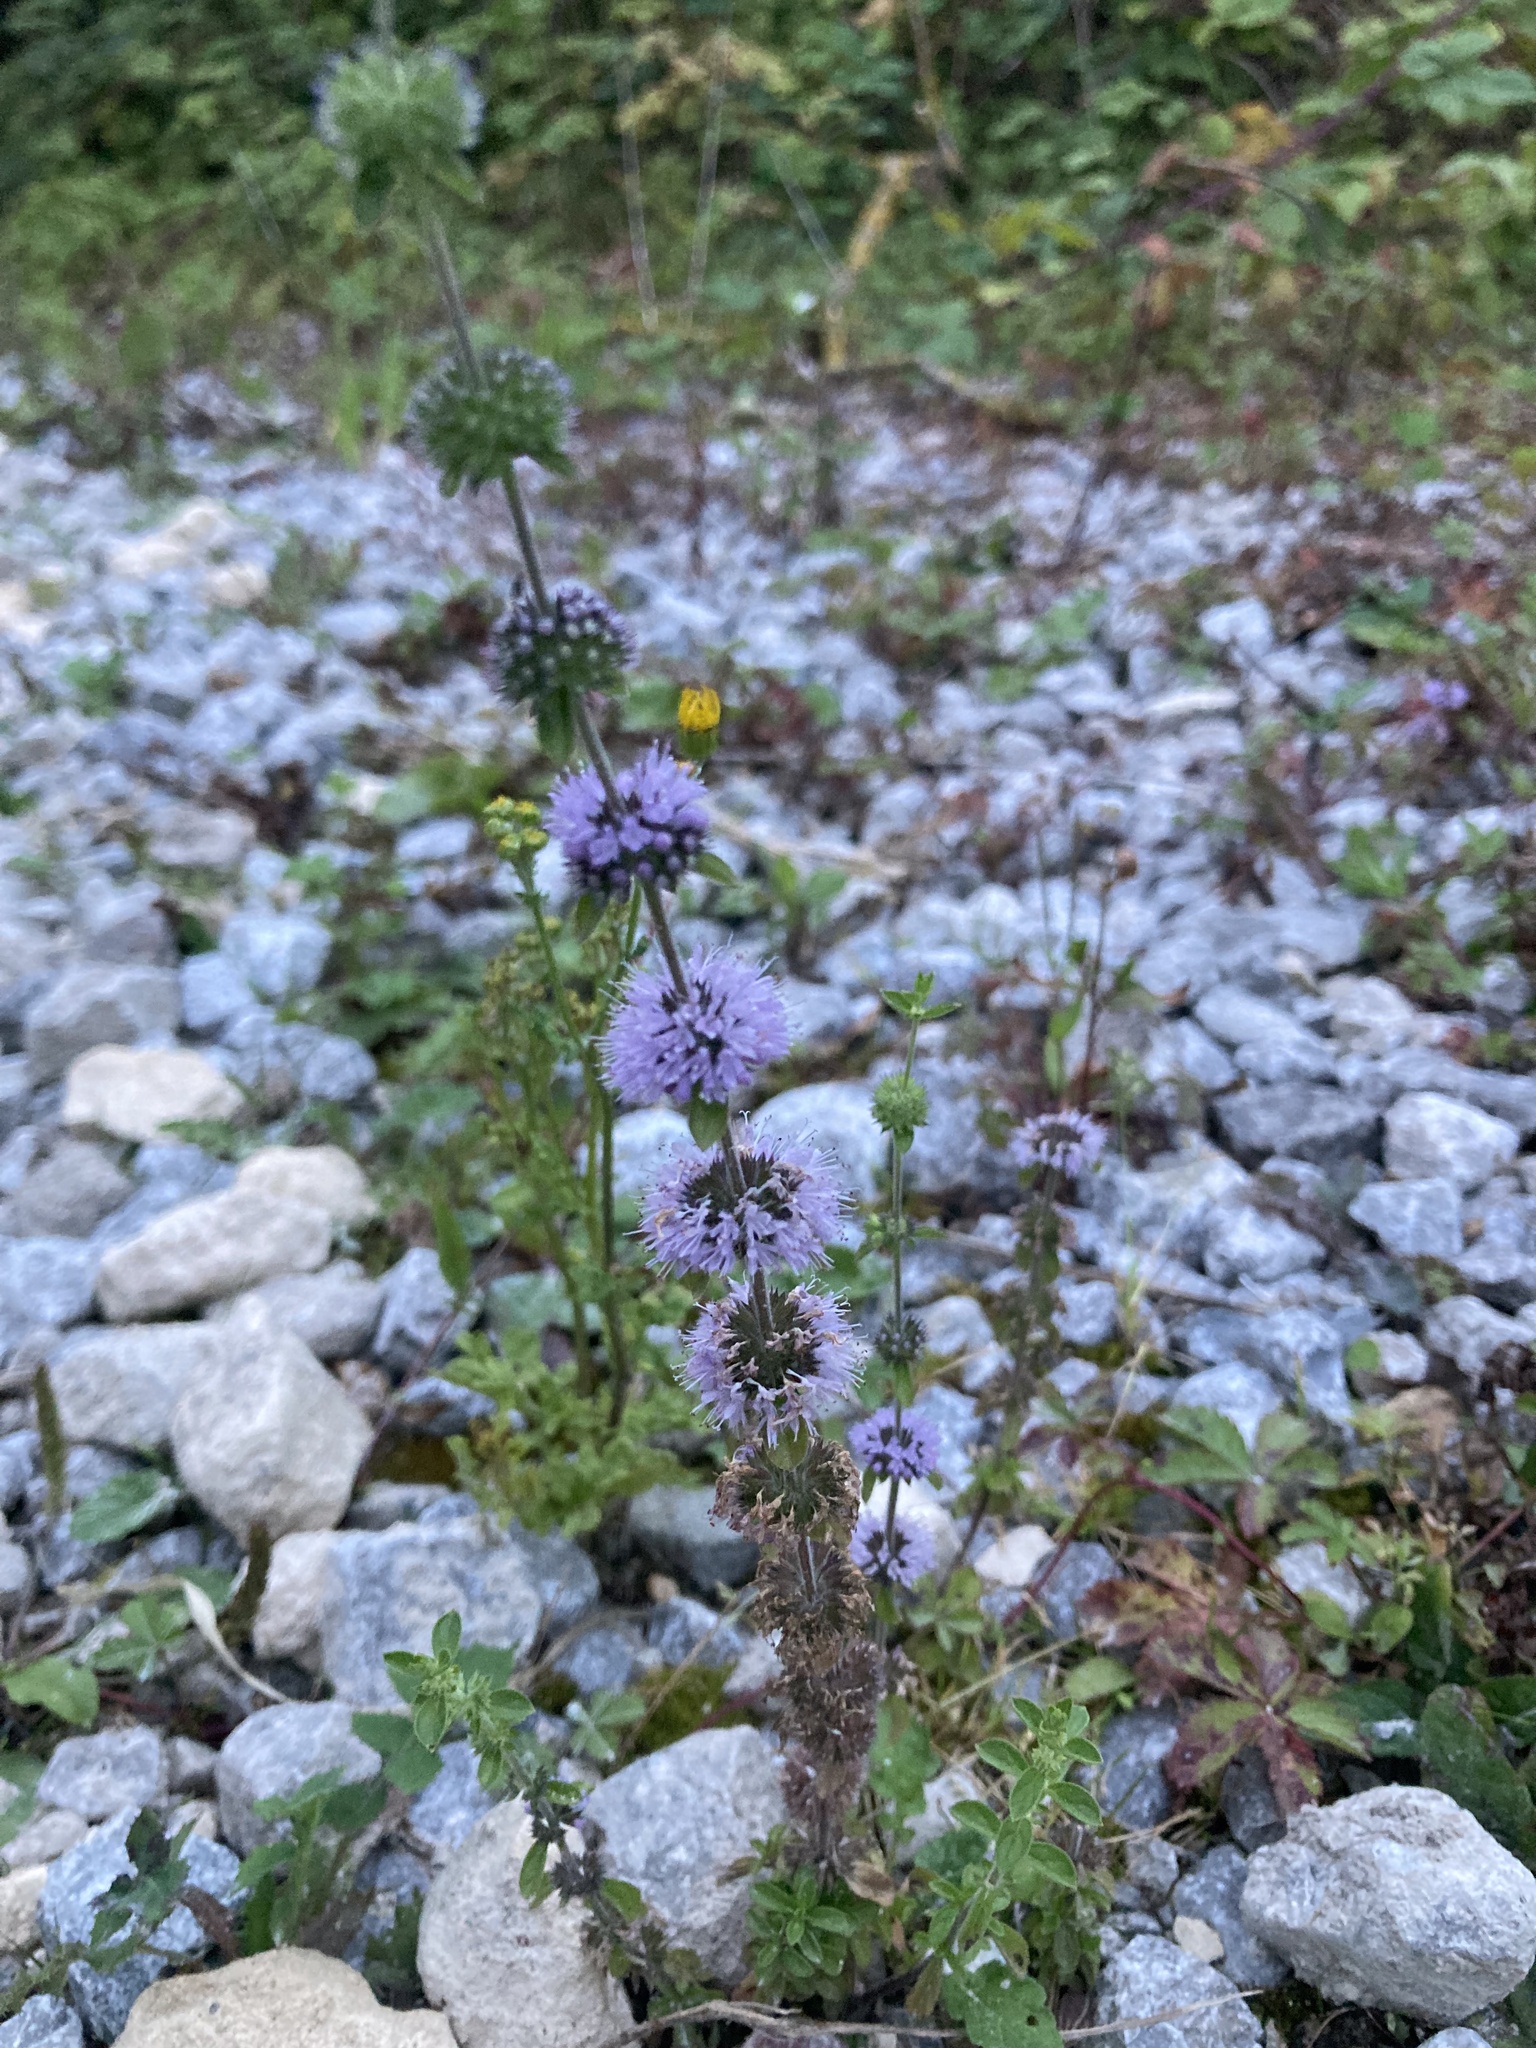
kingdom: Plantae
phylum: Tracheophyta
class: Magnoliopsida
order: Lamiales
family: Lamiaceae
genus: Mentha
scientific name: Mentha pulegium
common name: Pennyroyal
